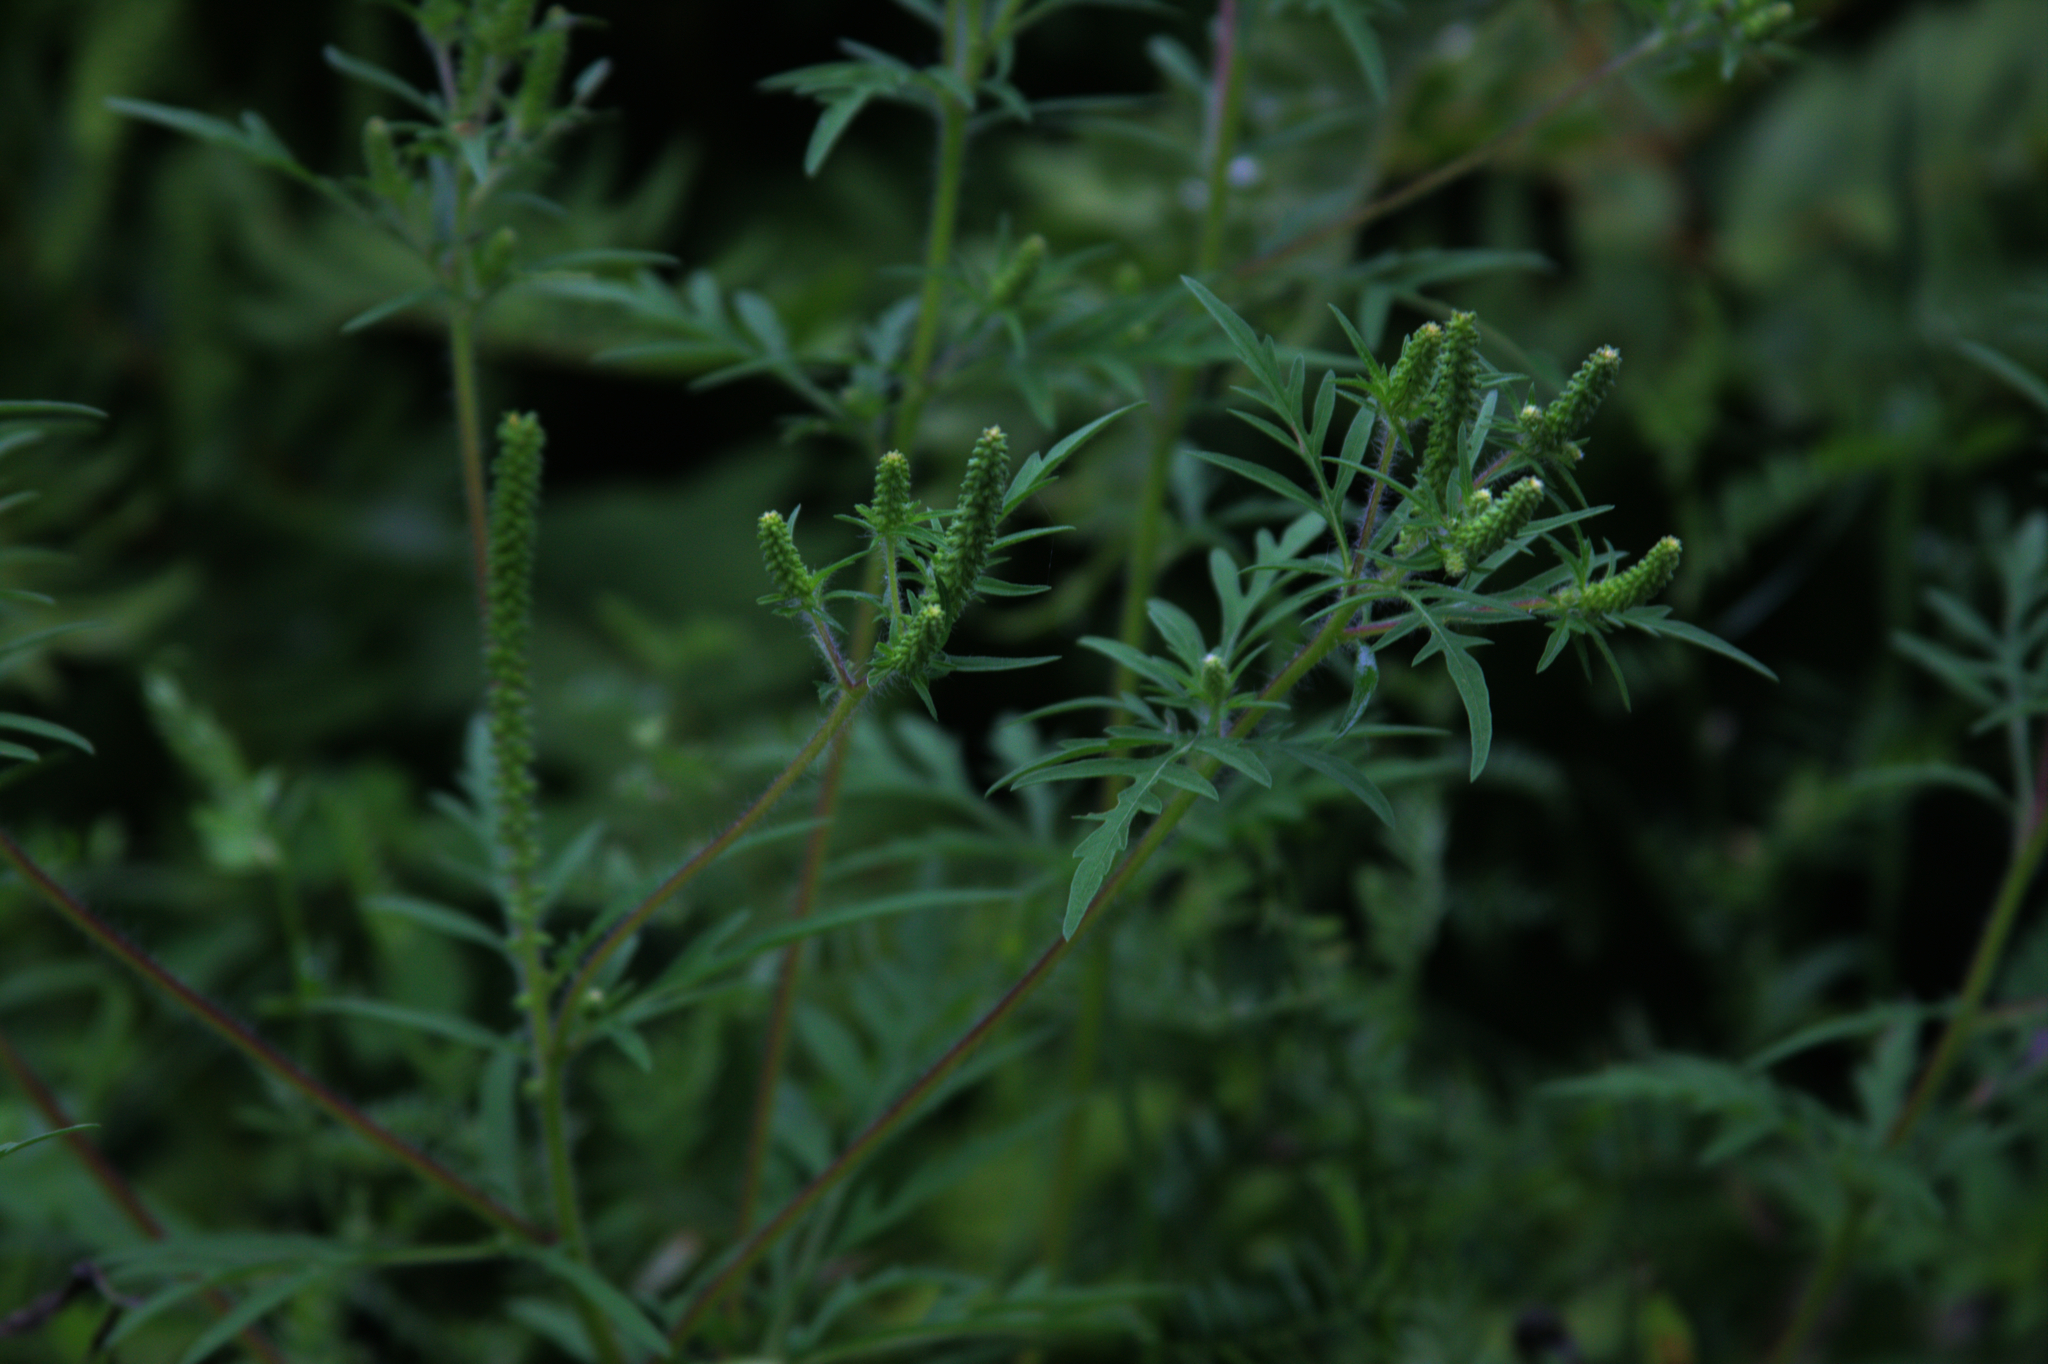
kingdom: Plantae
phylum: Tracheophyta
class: Magnoliopsida
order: Asterales
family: Asteraceae
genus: Ambrosia
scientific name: Ambrosia artemisiifolia
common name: Annual ragweed
